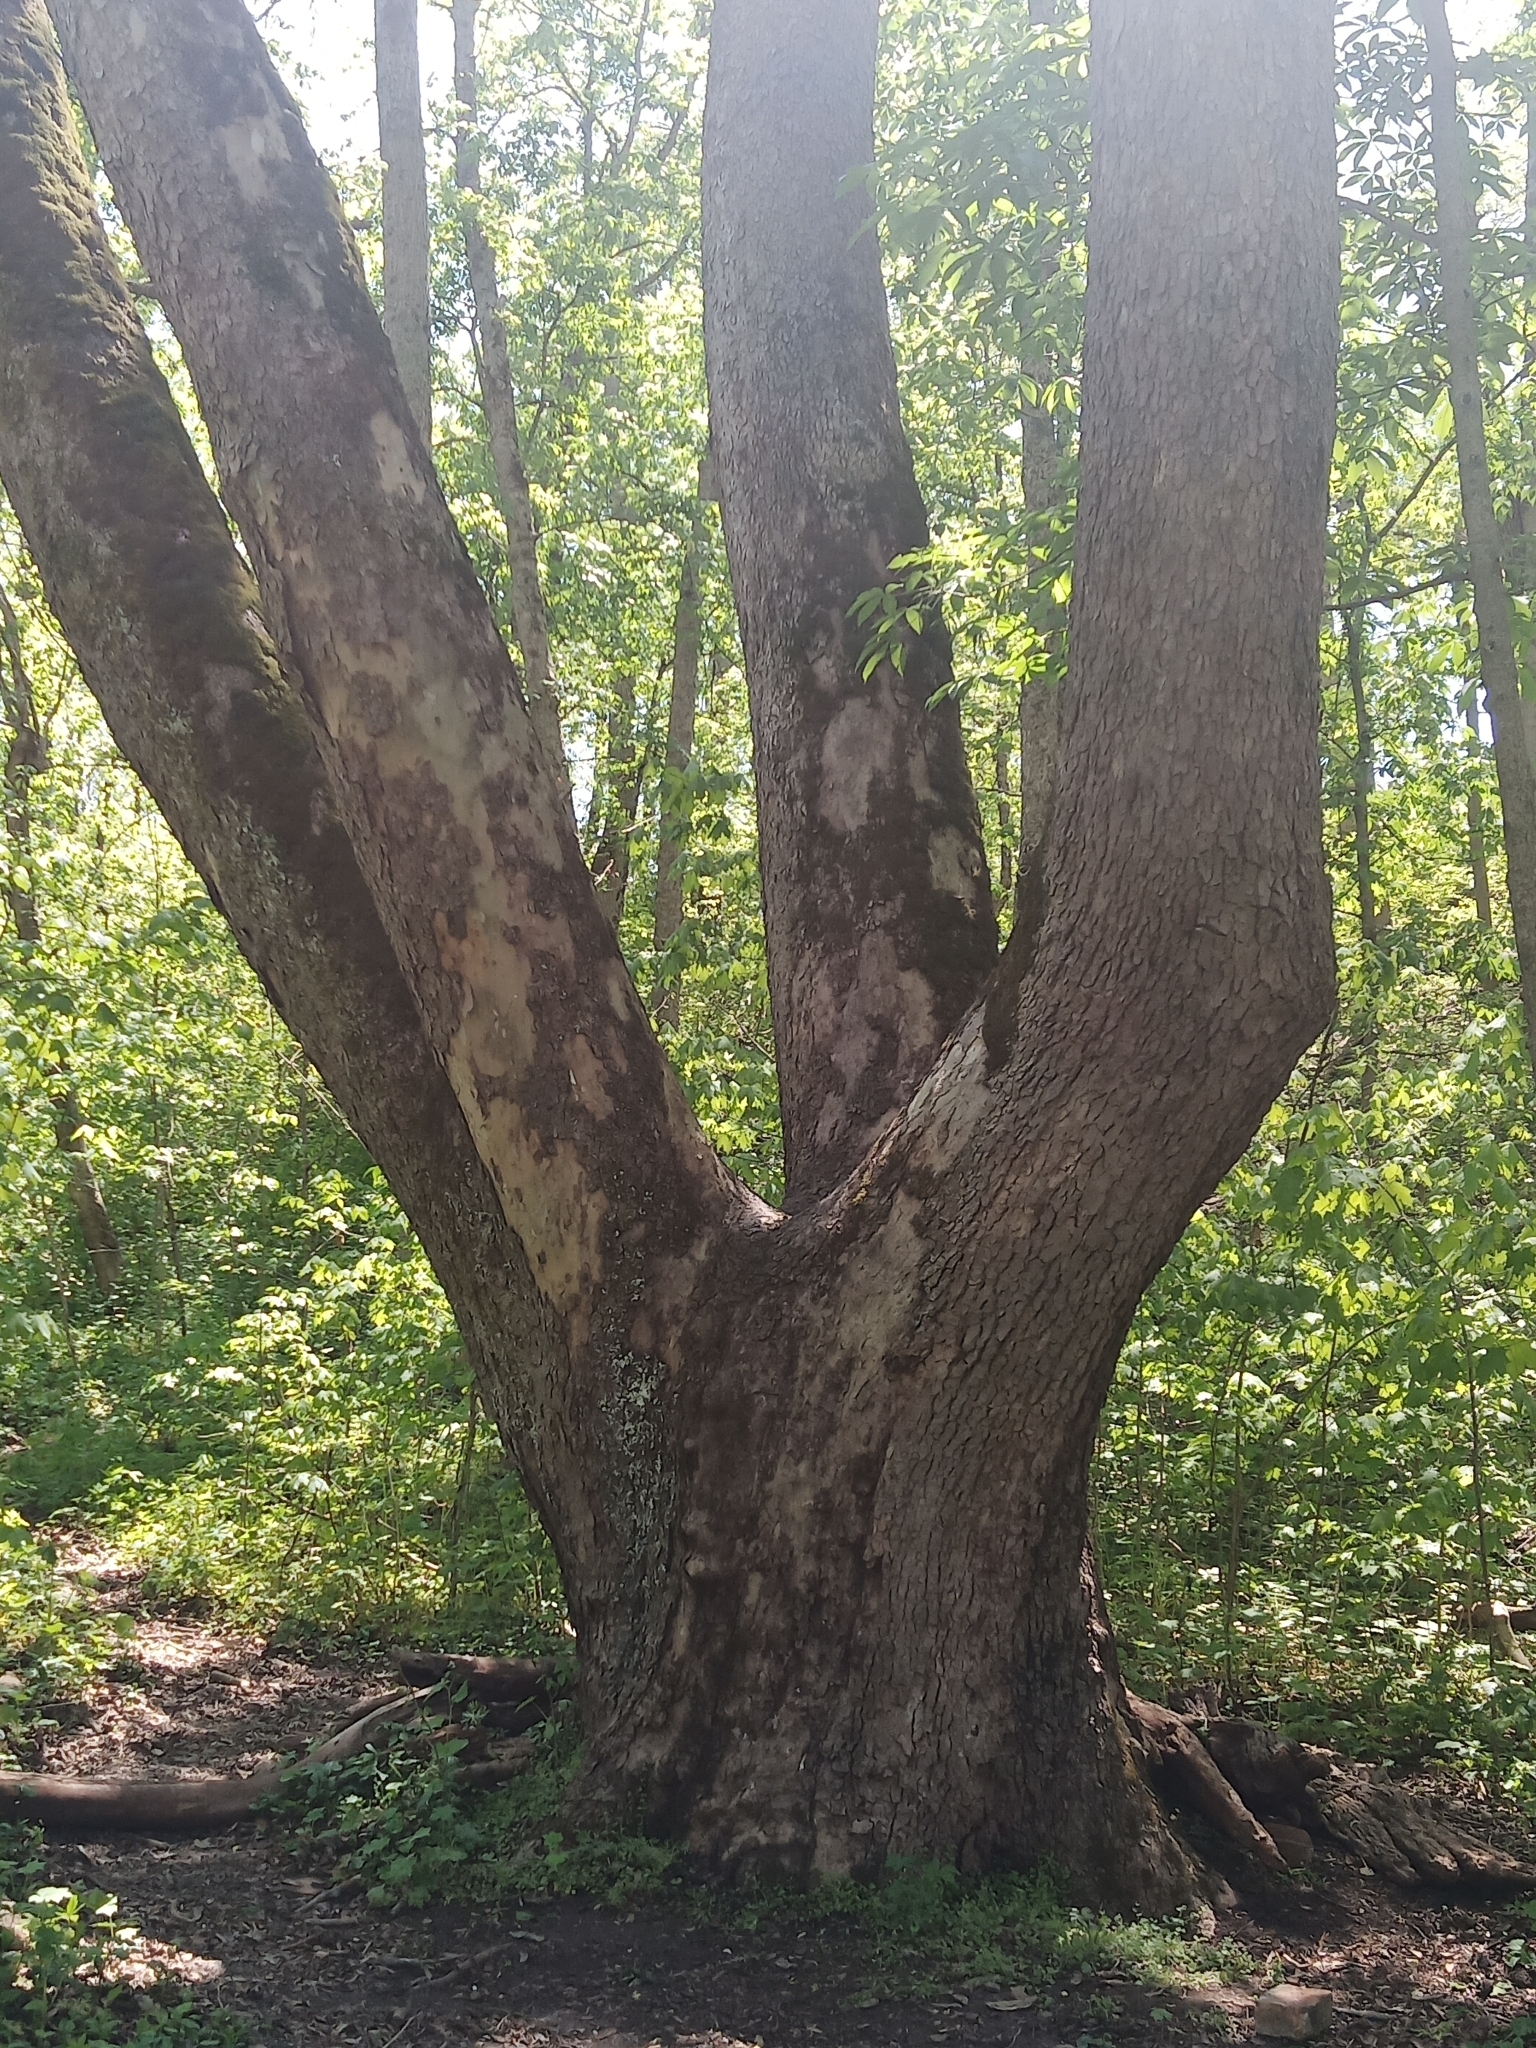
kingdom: Plantae
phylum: Tracheophyta
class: Magnoliopsida
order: Proteales
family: Platanaceae
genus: Platanus
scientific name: Platanus occidentalis
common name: American sycamore
